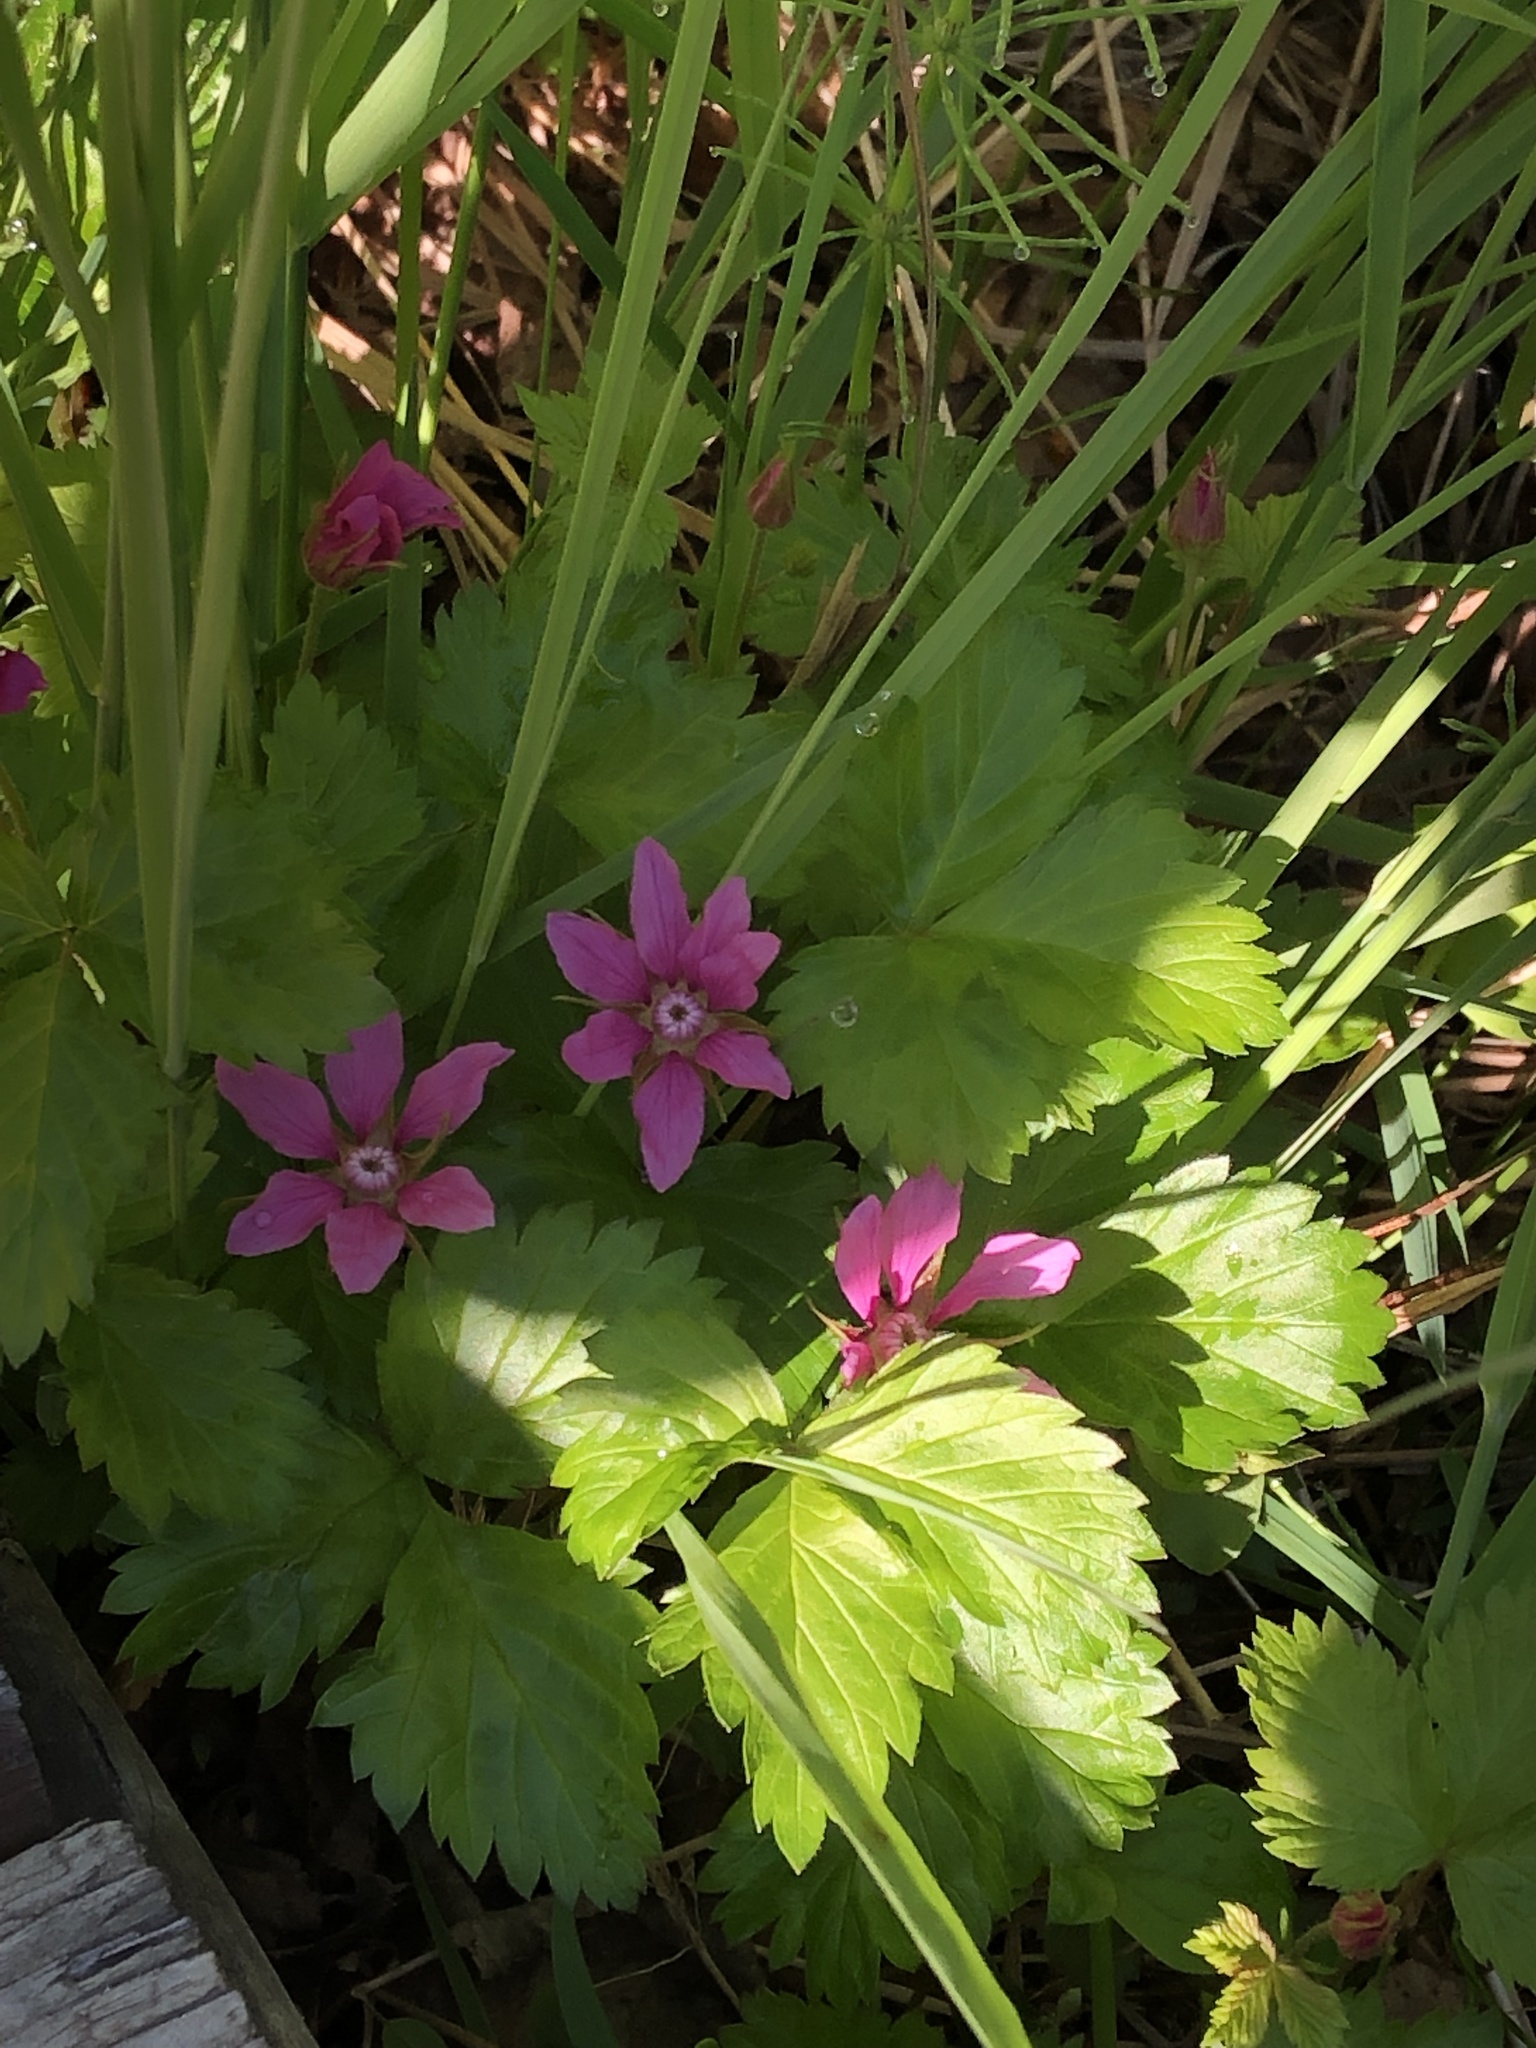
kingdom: Plantae
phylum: Tracheophyta
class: Magnoliopsida
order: Rosales
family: Rosaceae
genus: Rubus
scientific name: Rubus arcticus
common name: Arctic bramble
